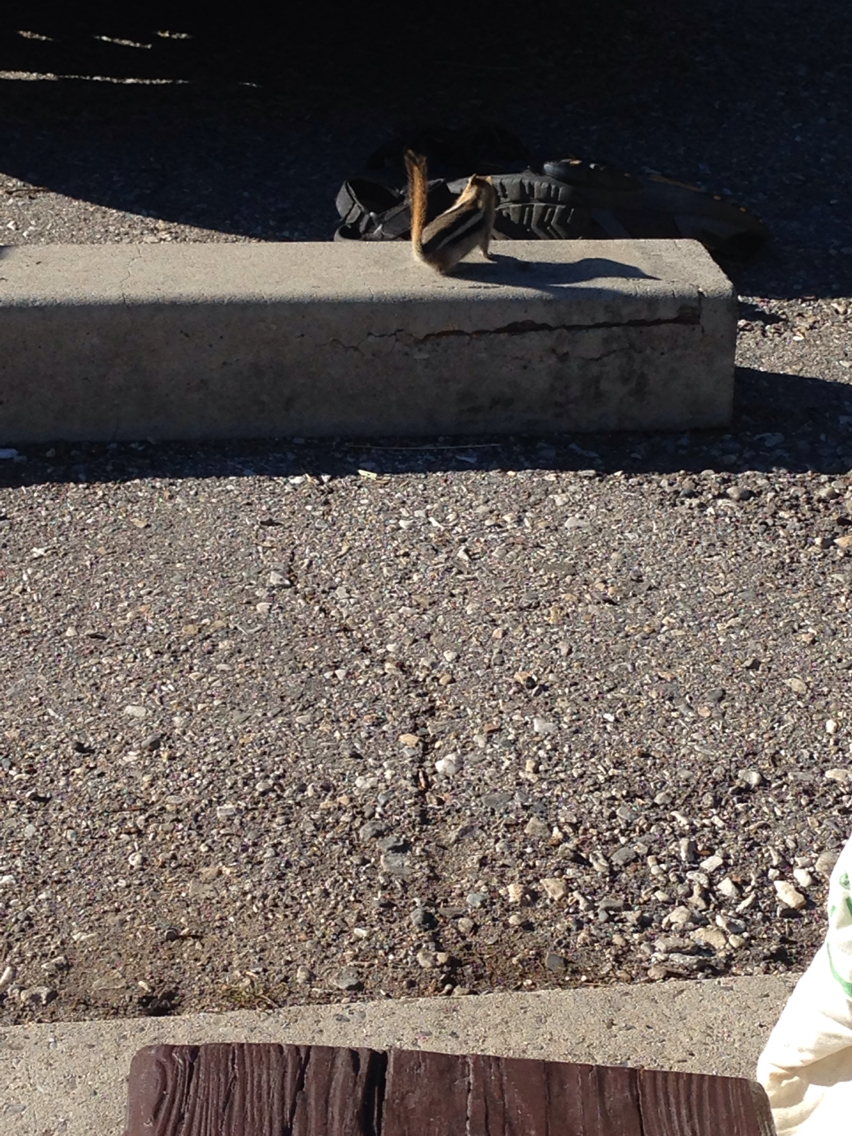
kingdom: Animalia
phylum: Chordata
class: Mammalia
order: Rodentia
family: Sciuridae
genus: Callospermophilus
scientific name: Callospermophilus lateralis
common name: Golden-mantled ground squirrel
